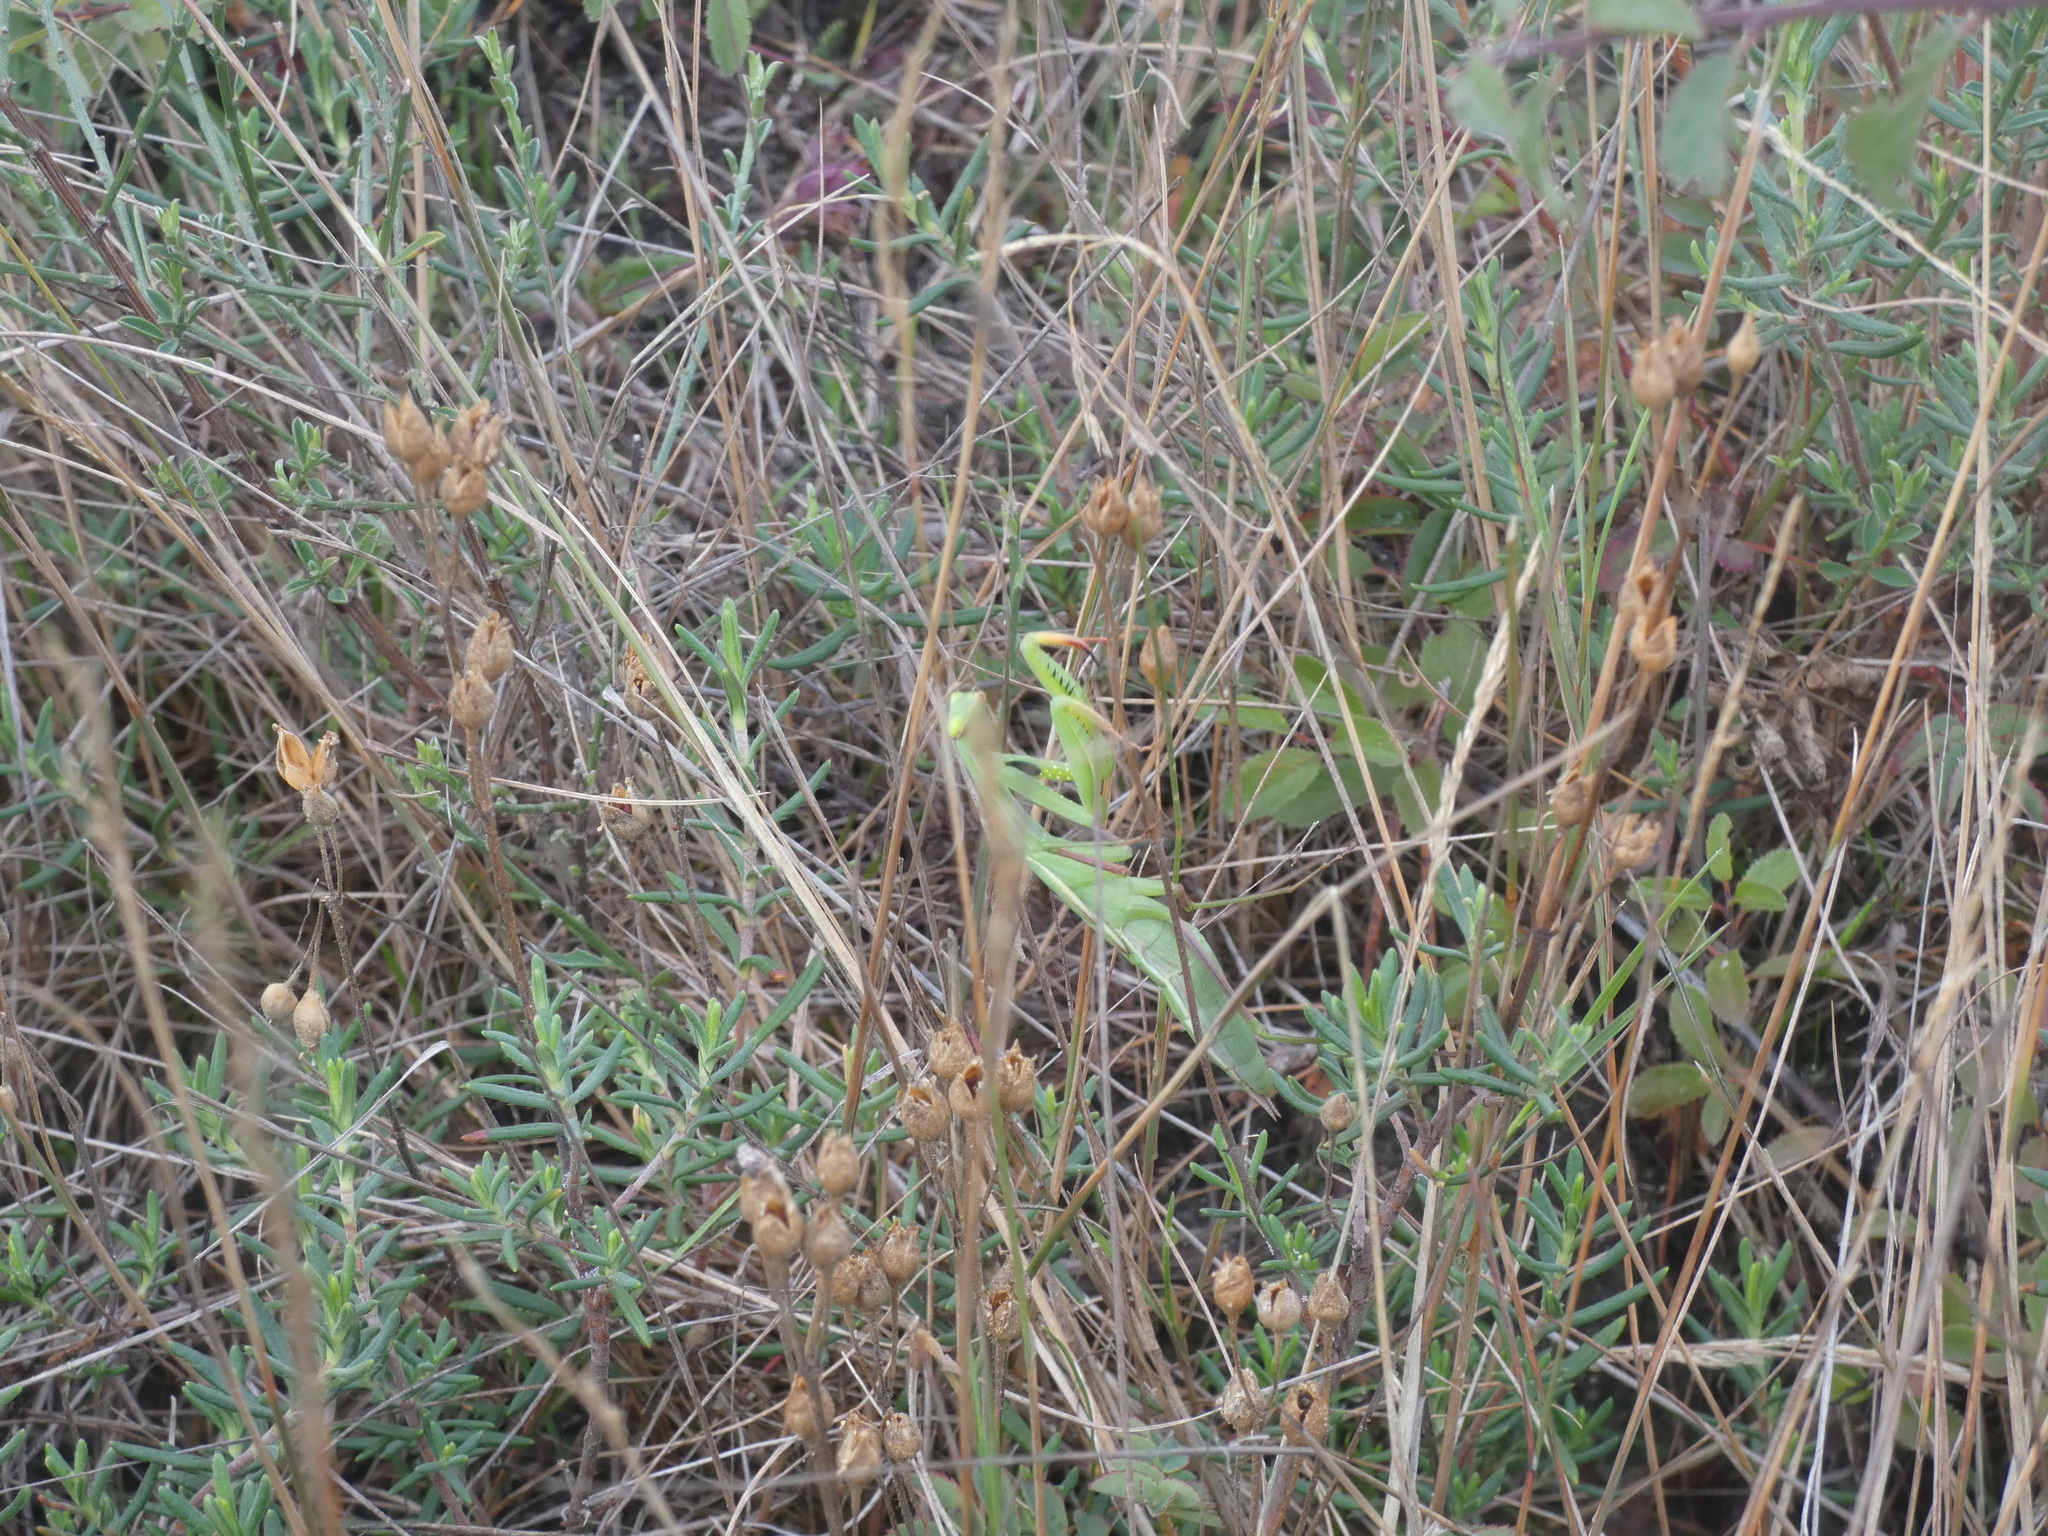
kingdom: Animalia
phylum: Arthropoda
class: Insecta
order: Mantodea
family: Mantidae
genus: Mantis
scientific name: Mantis religiosa
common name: Praying mantis
